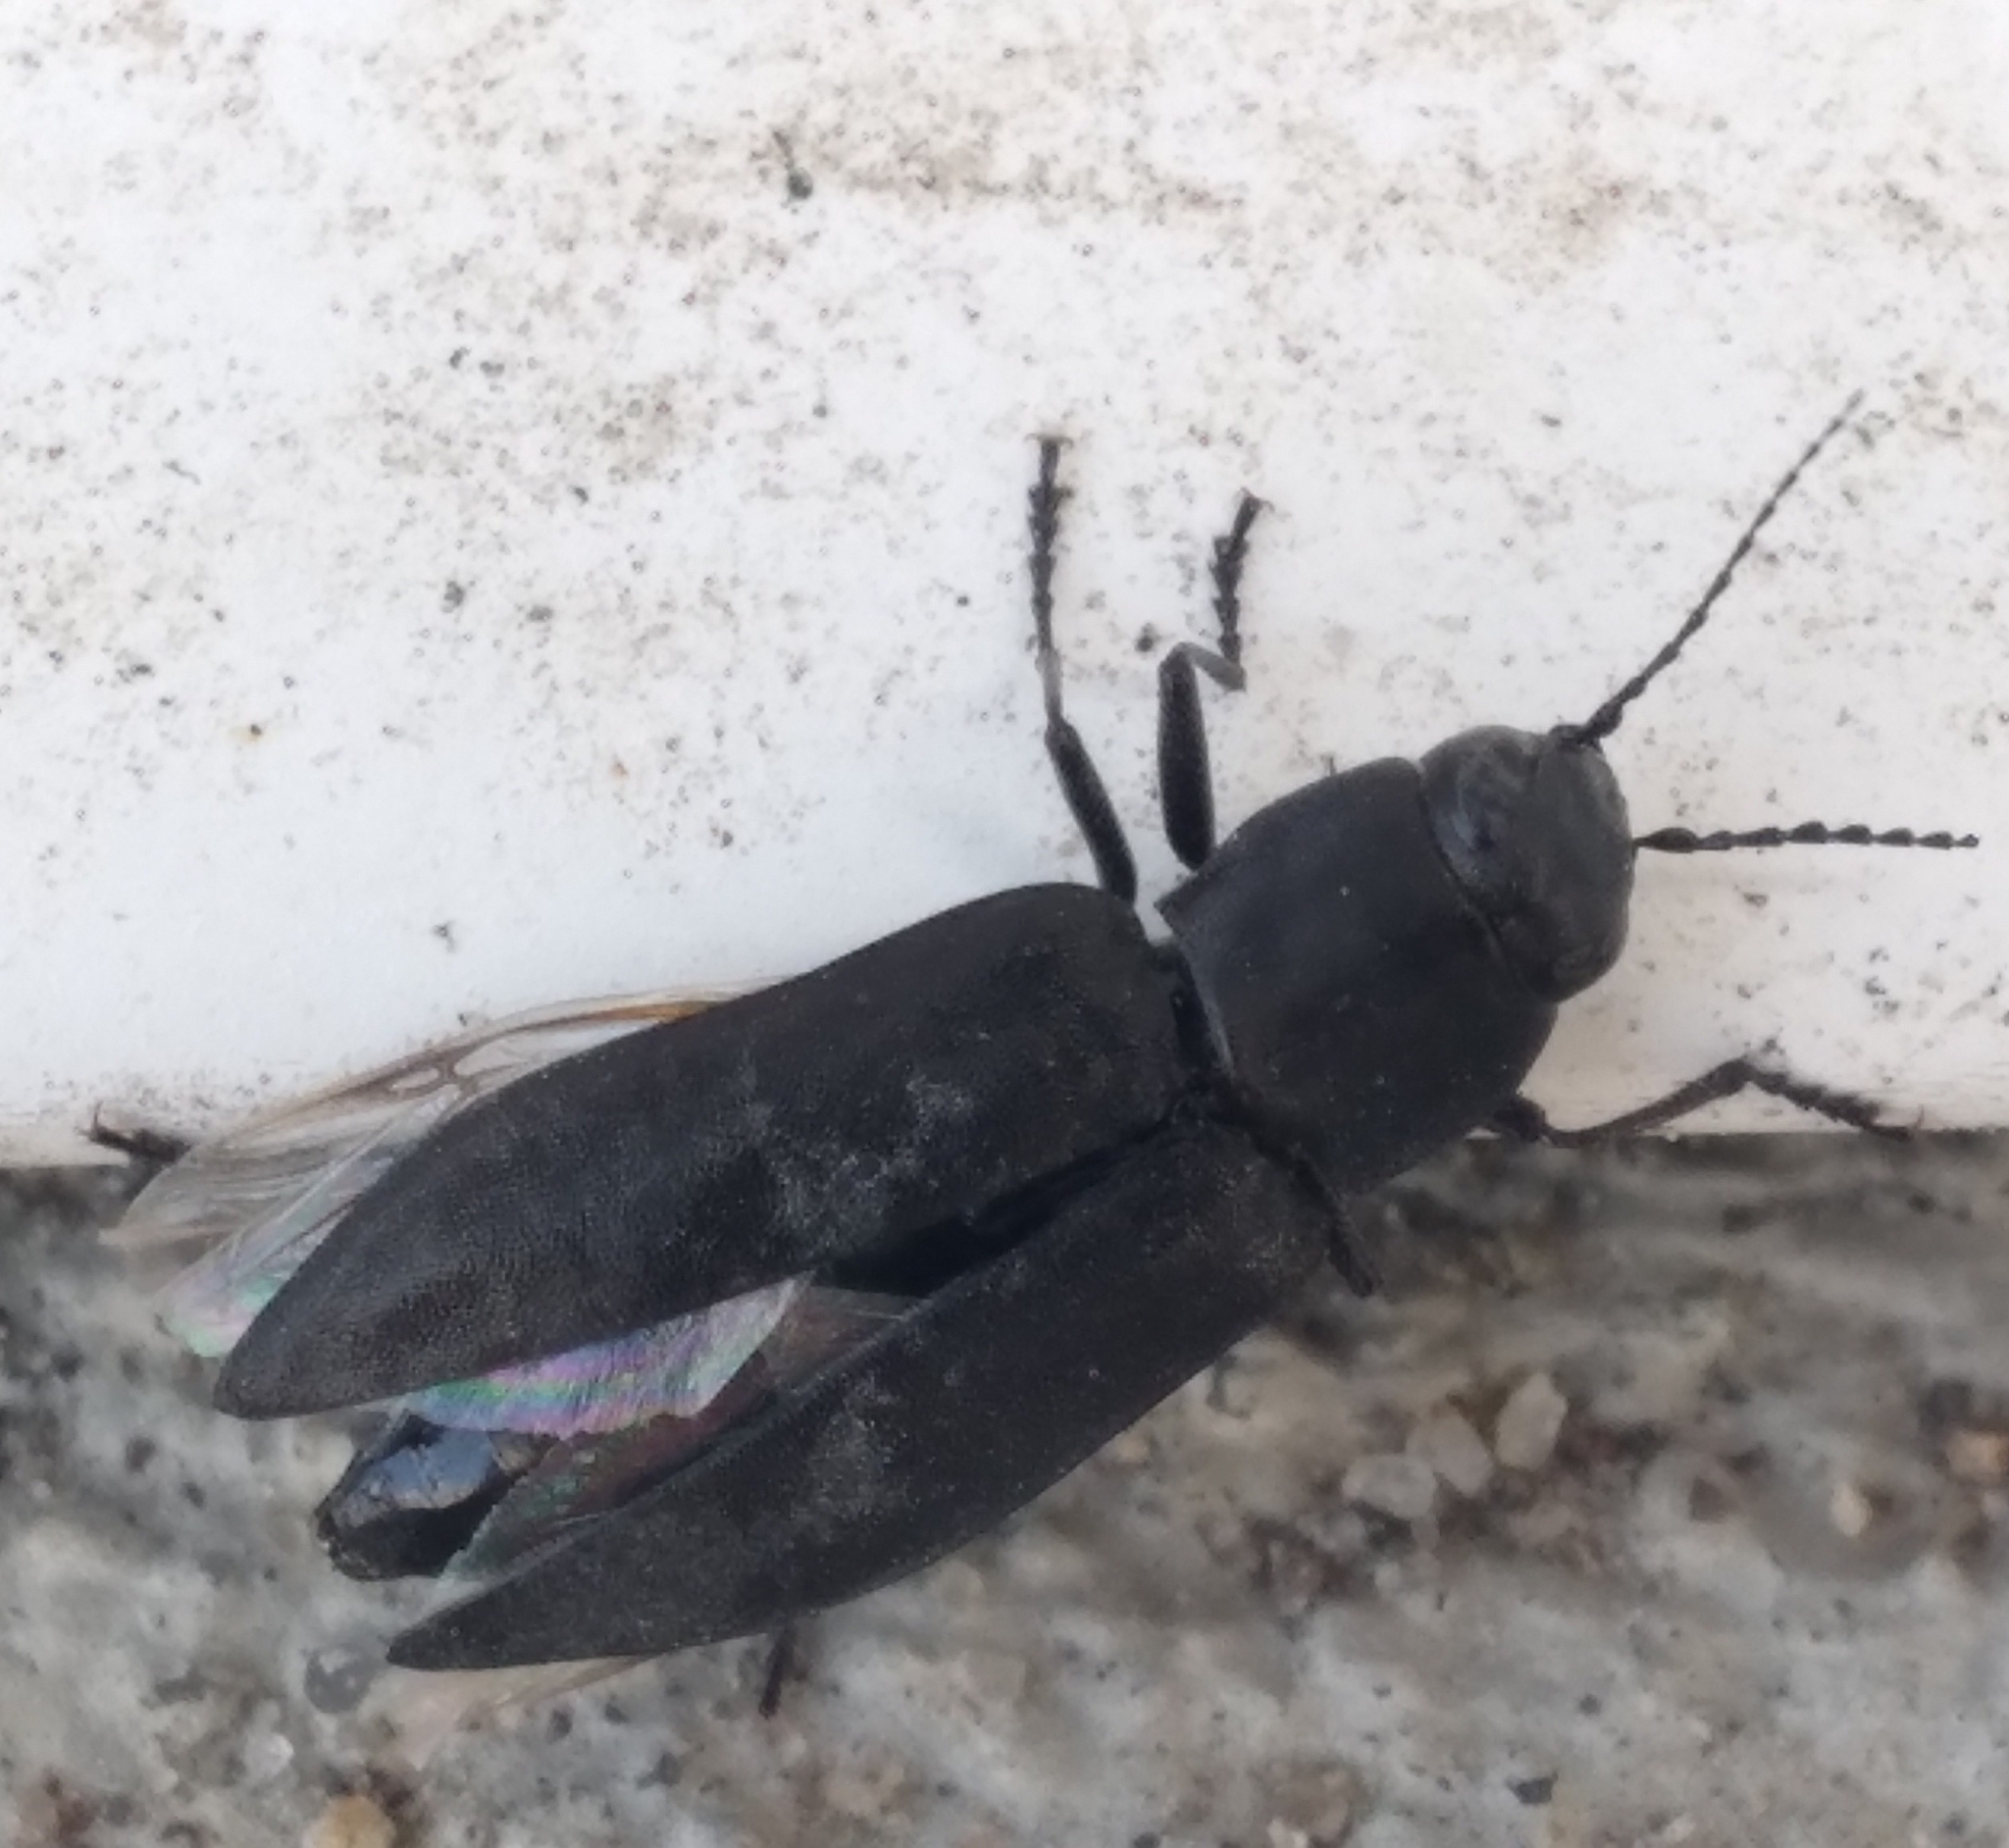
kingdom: Animalia
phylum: Arthropoda
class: Insecta
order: Coleoptera
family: Buprestidae
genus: Melanophila
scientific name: Melanophila acuminata
